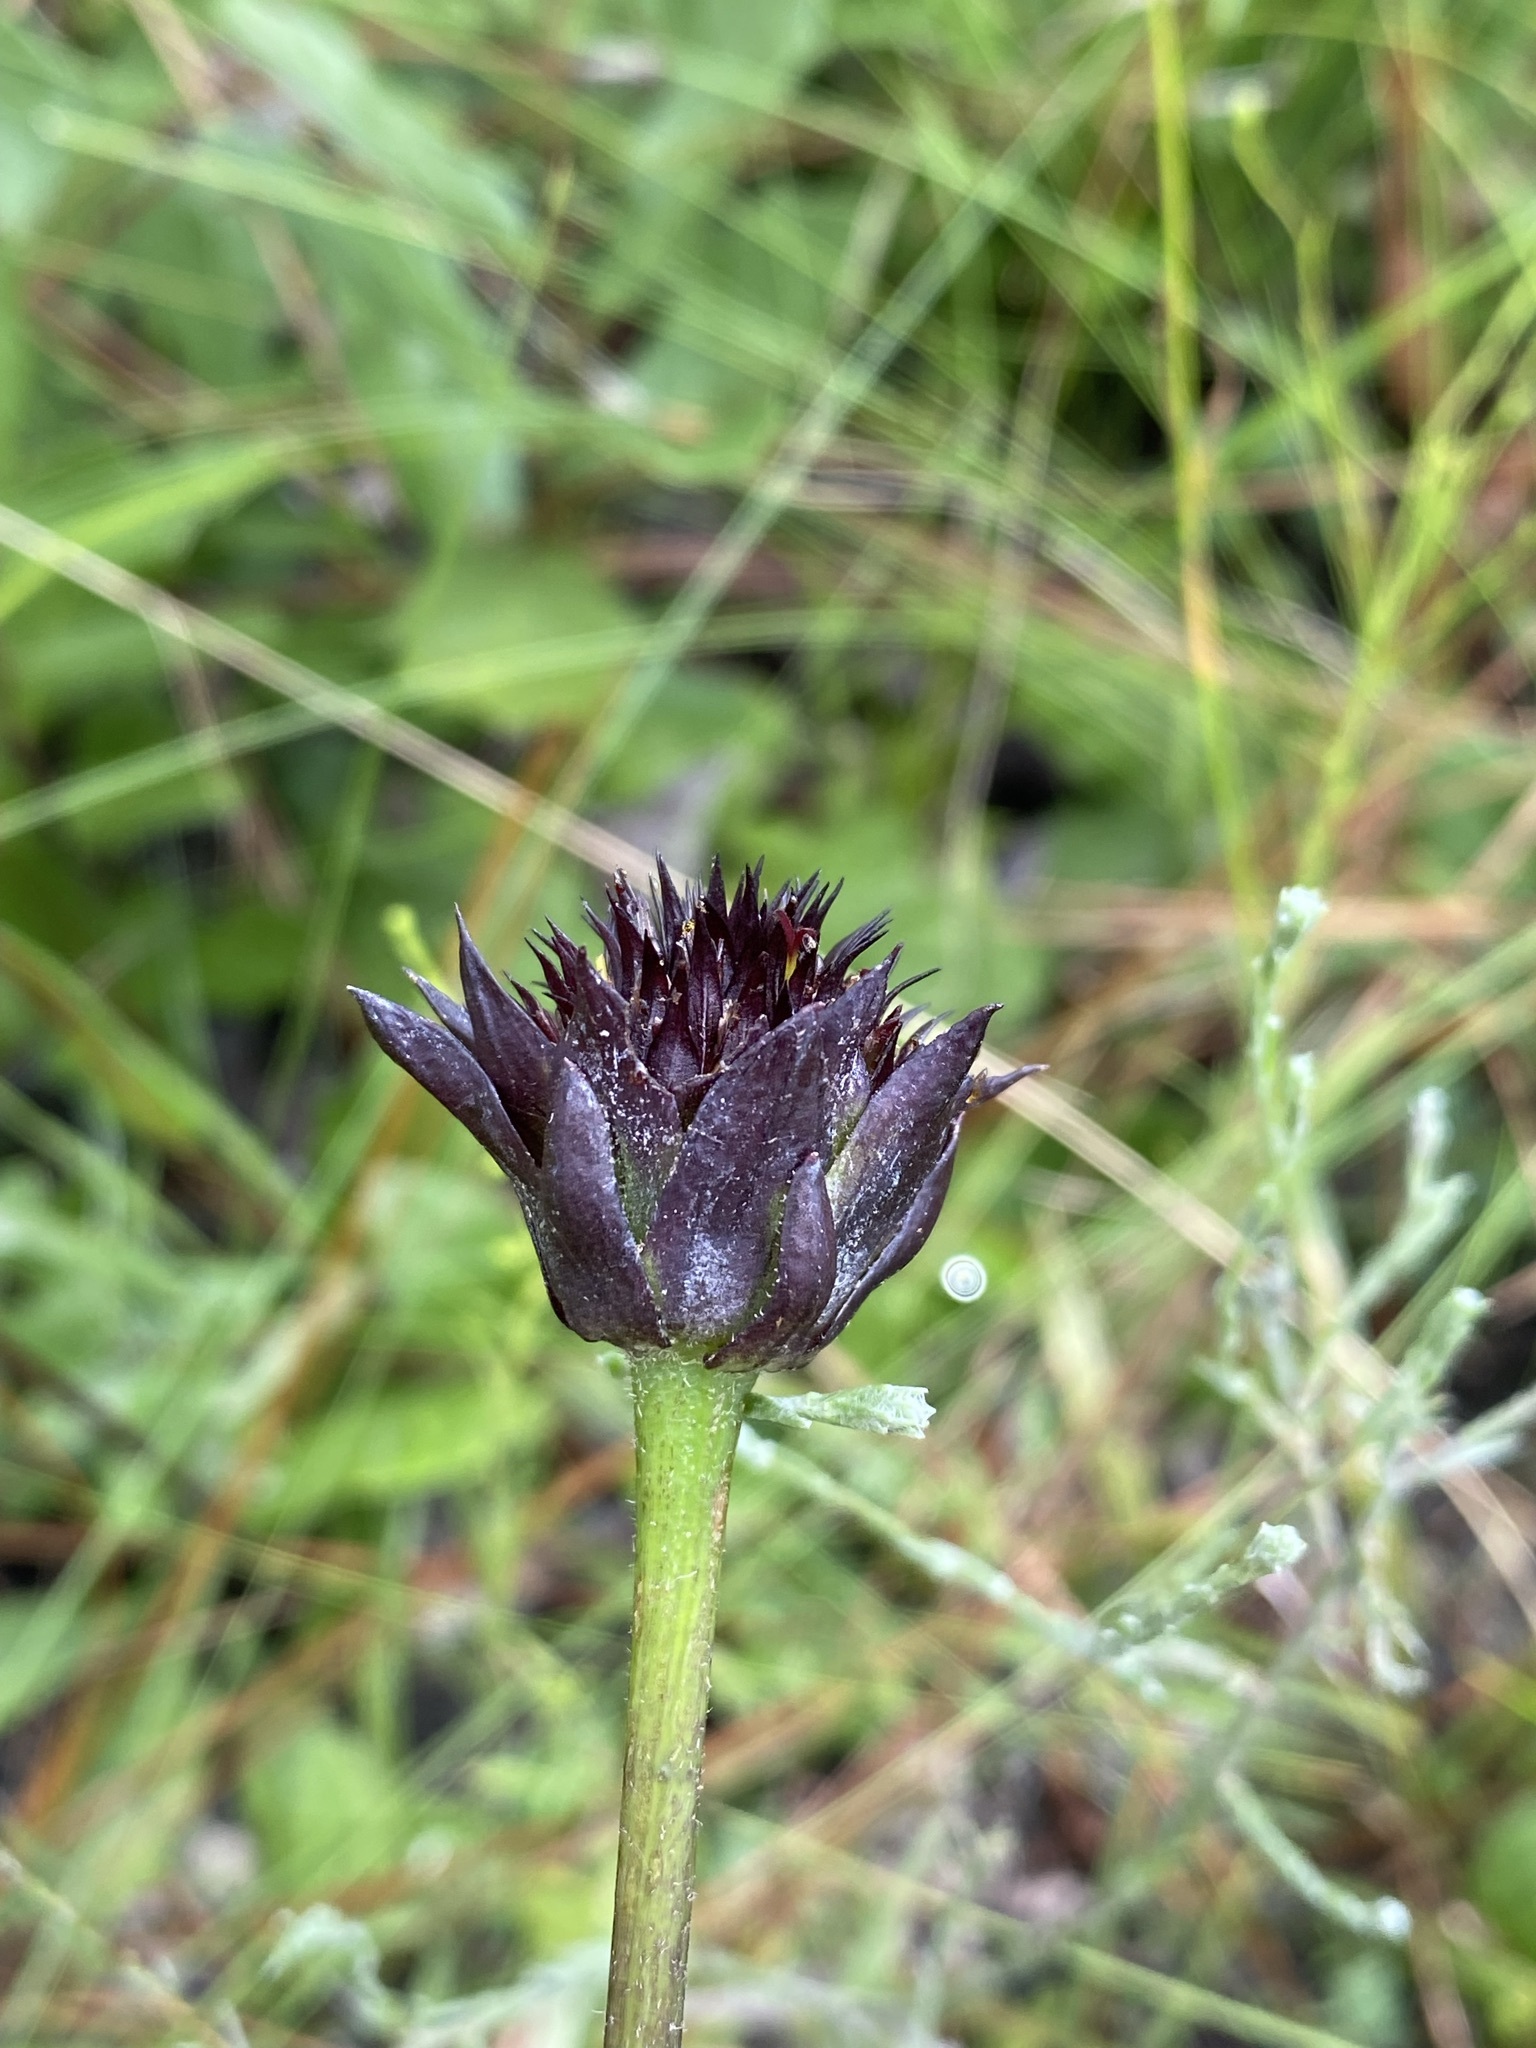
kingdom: Plantae
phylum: Tracheophyta
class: Magnoliopsida
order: Asterales
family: Asteraceae
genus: Helianthus
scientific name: Helianthus radula
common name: Pineland sunflower
